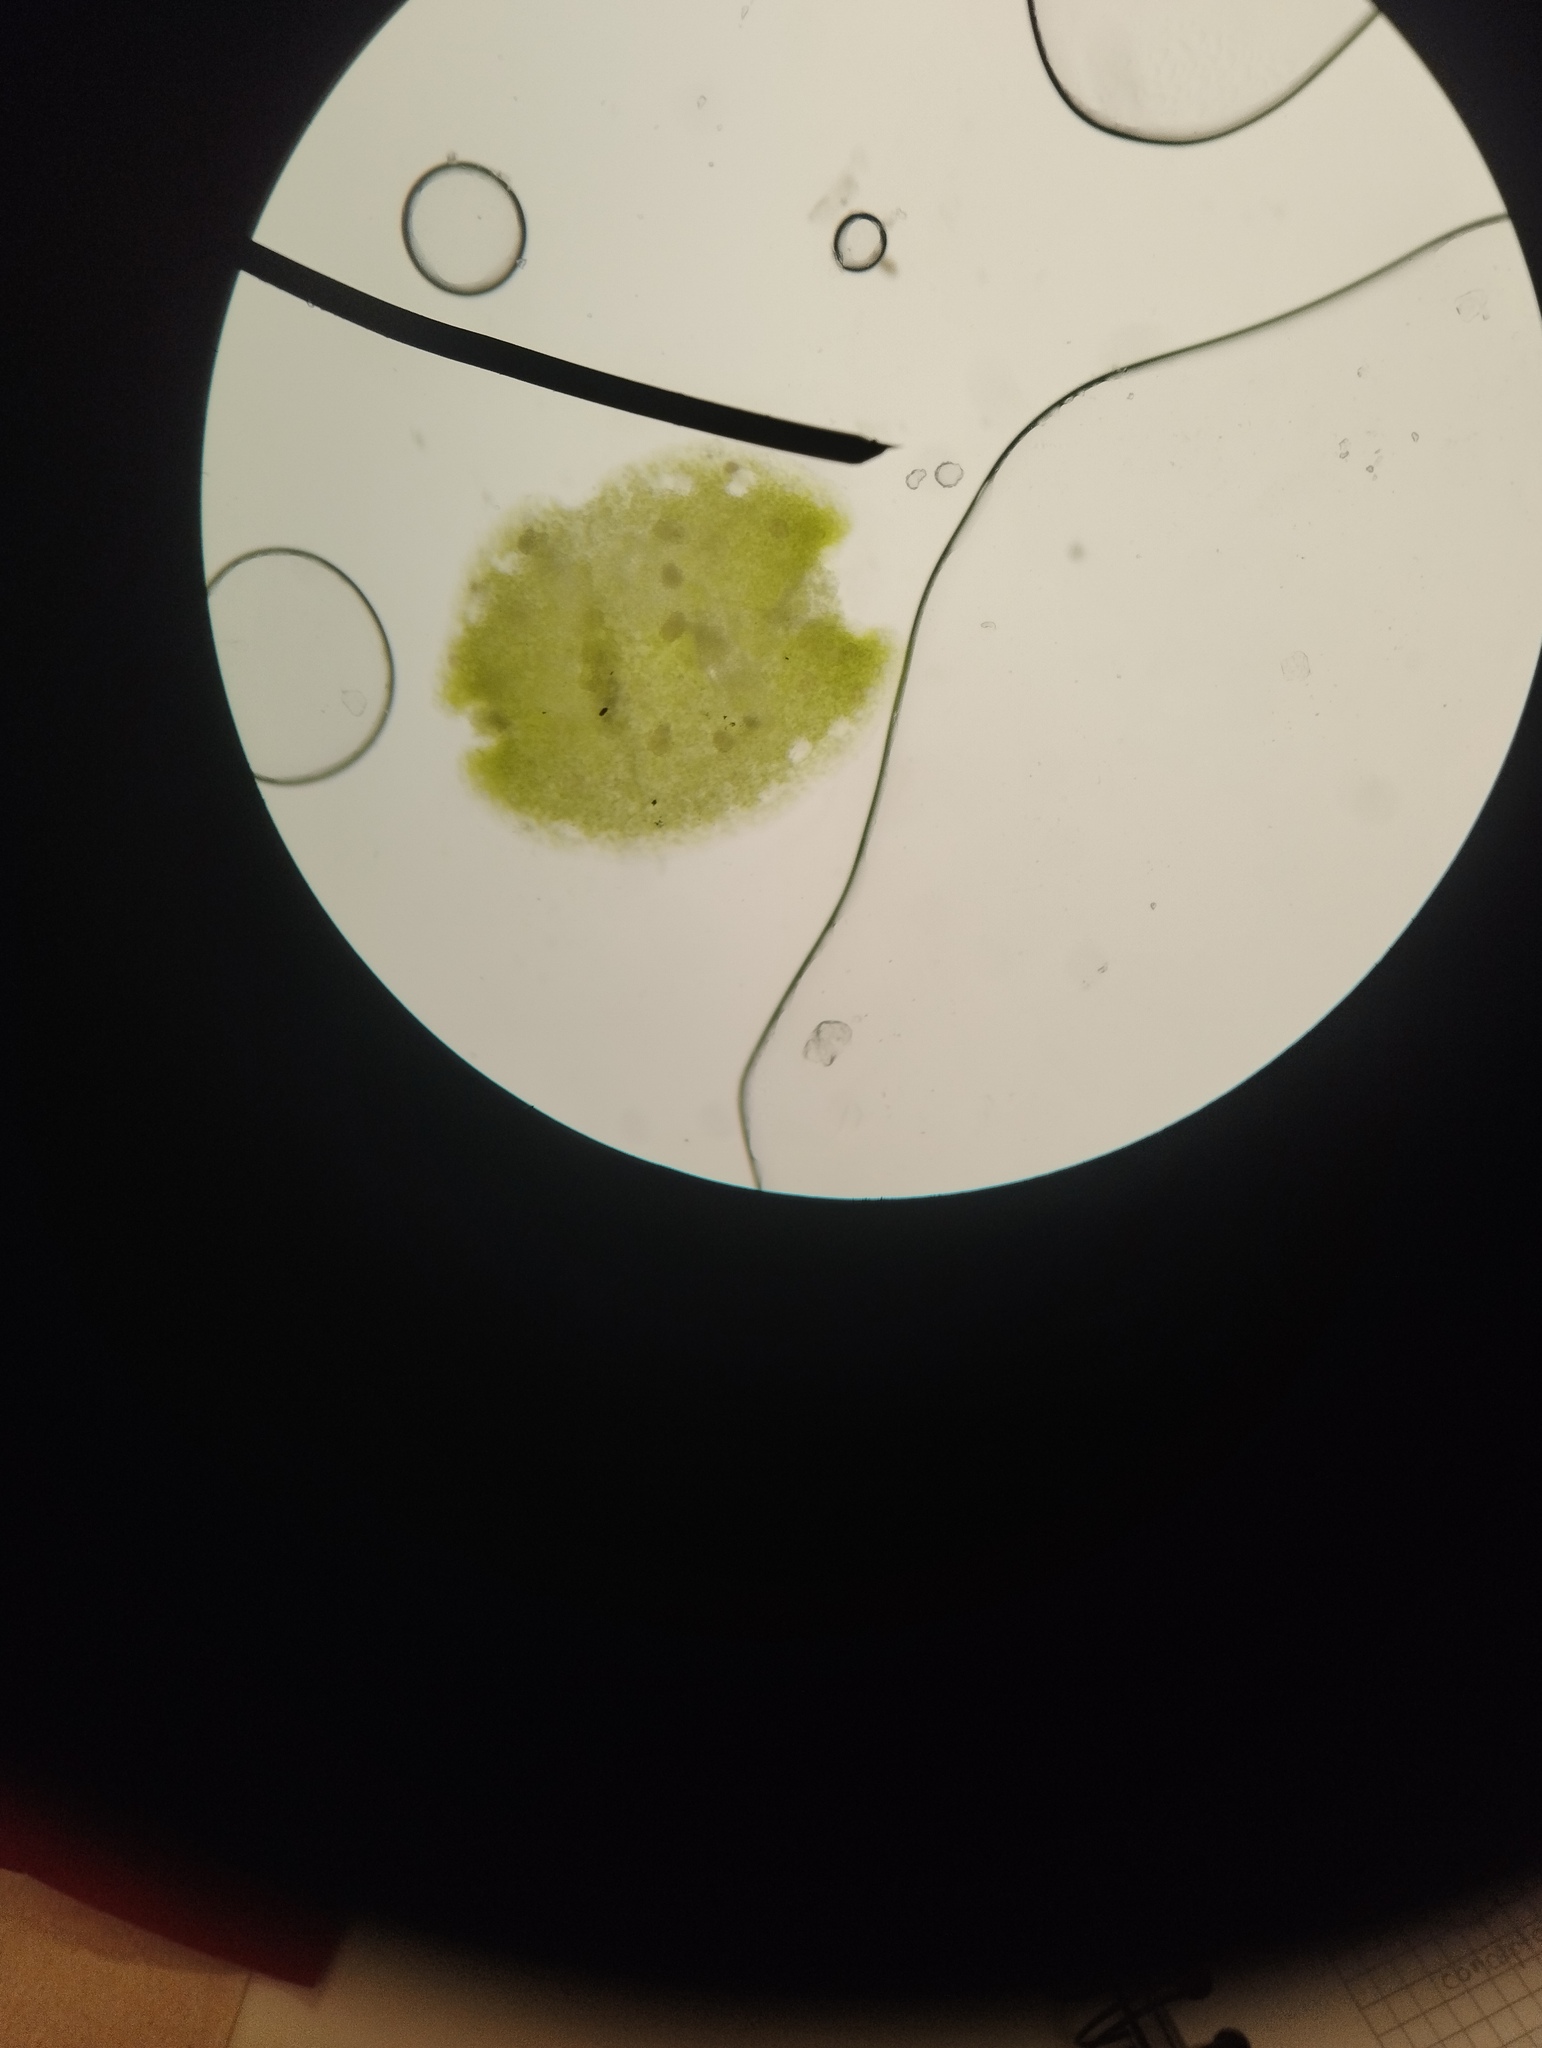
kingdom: Plantae
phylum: Marchantiophyta
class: Marchantiopsida
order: Lunulariales
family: Lunulariaceae
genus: Lunularia
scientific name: Lunularia cruciata
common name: Crescent-cup liverwort
